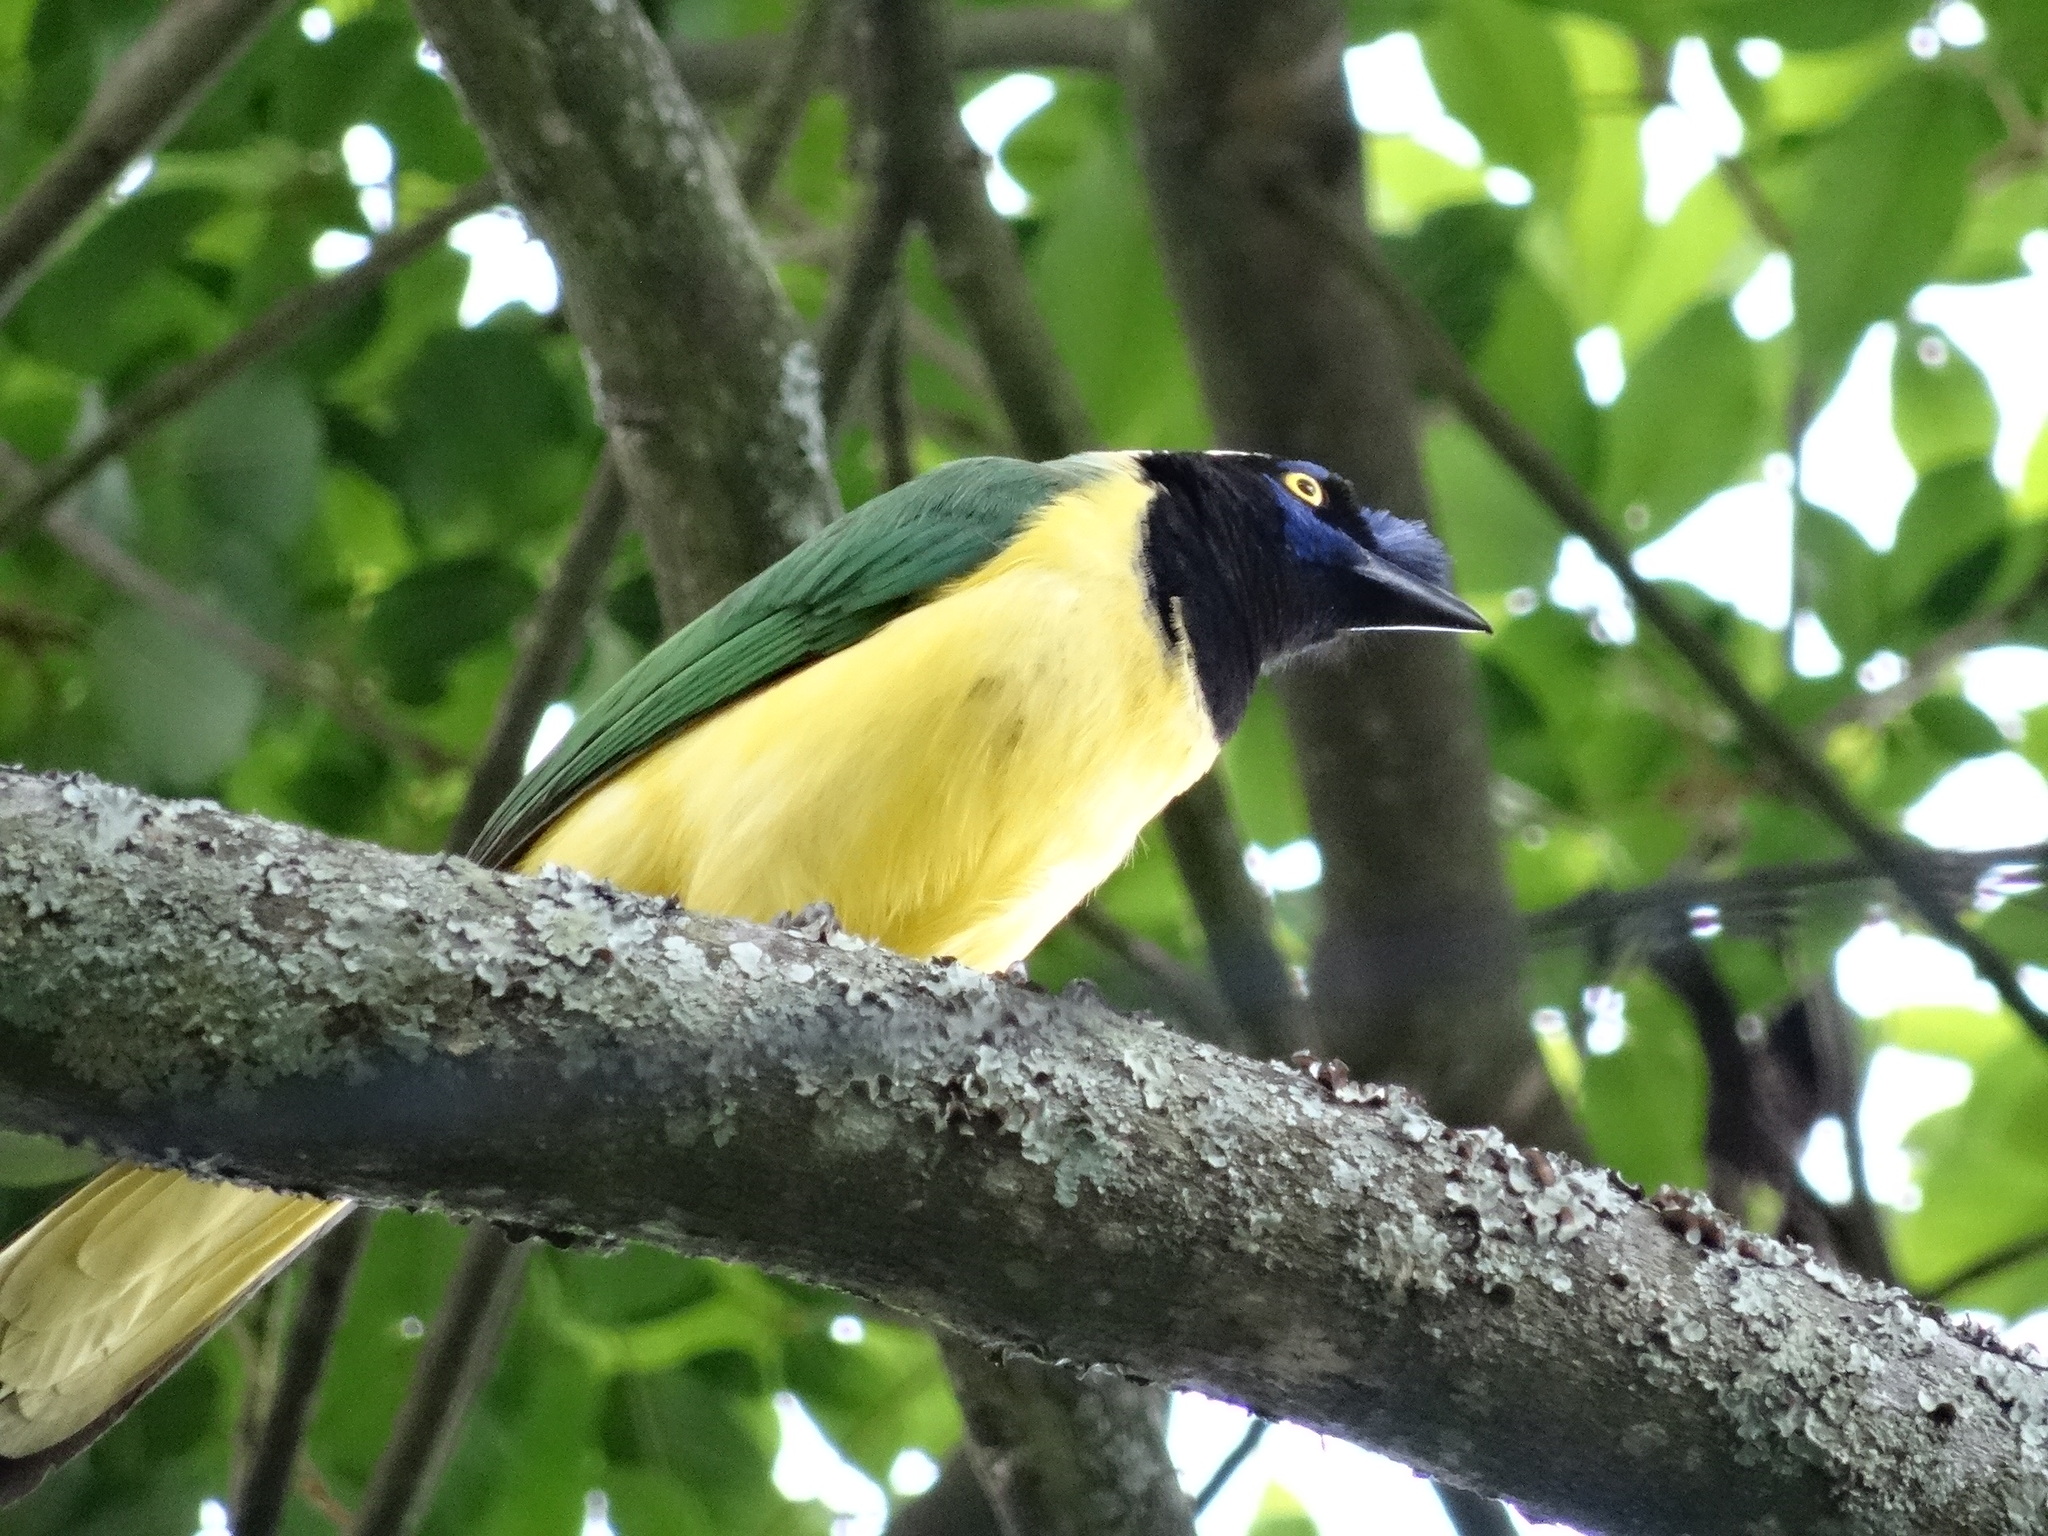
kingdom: Animalia
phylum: Chordata
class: Aves
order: Passeriformes
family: Corvidae
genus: Cyanocorax
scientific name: Cyanocorax yncas
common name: Green jay
